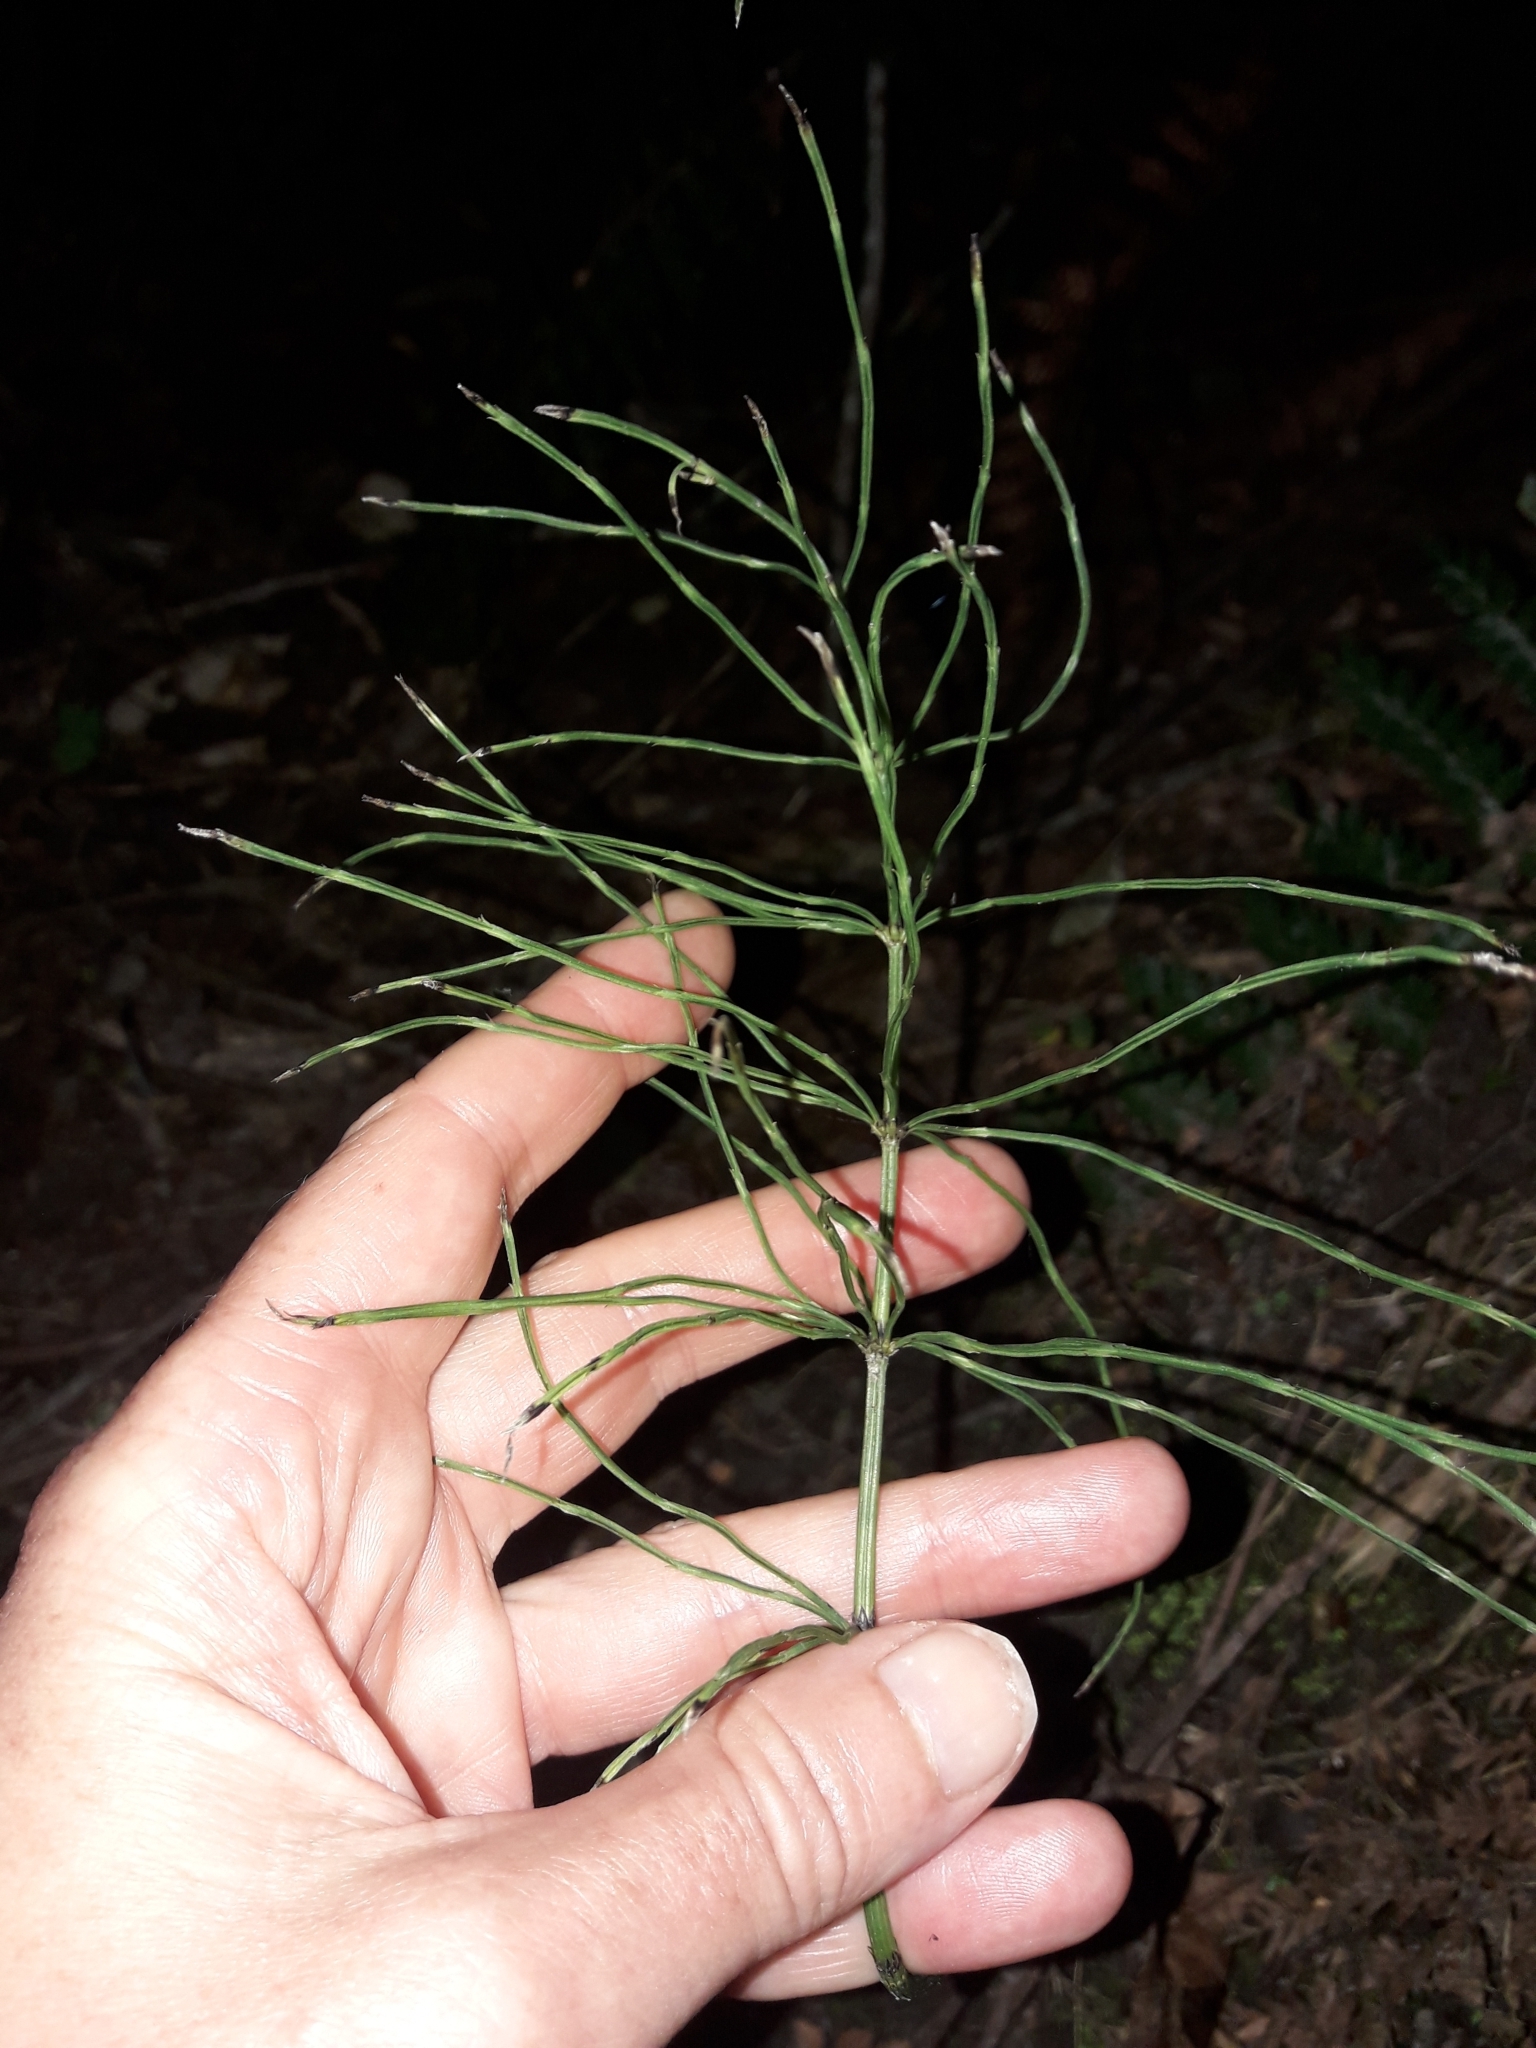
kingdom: Plantae
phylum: Tracheophyta
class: Polypodiopsida
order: Equisetales
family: Equisetaceae
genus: Equisetum
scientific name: Equisetum arvense
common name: Field horsetail
